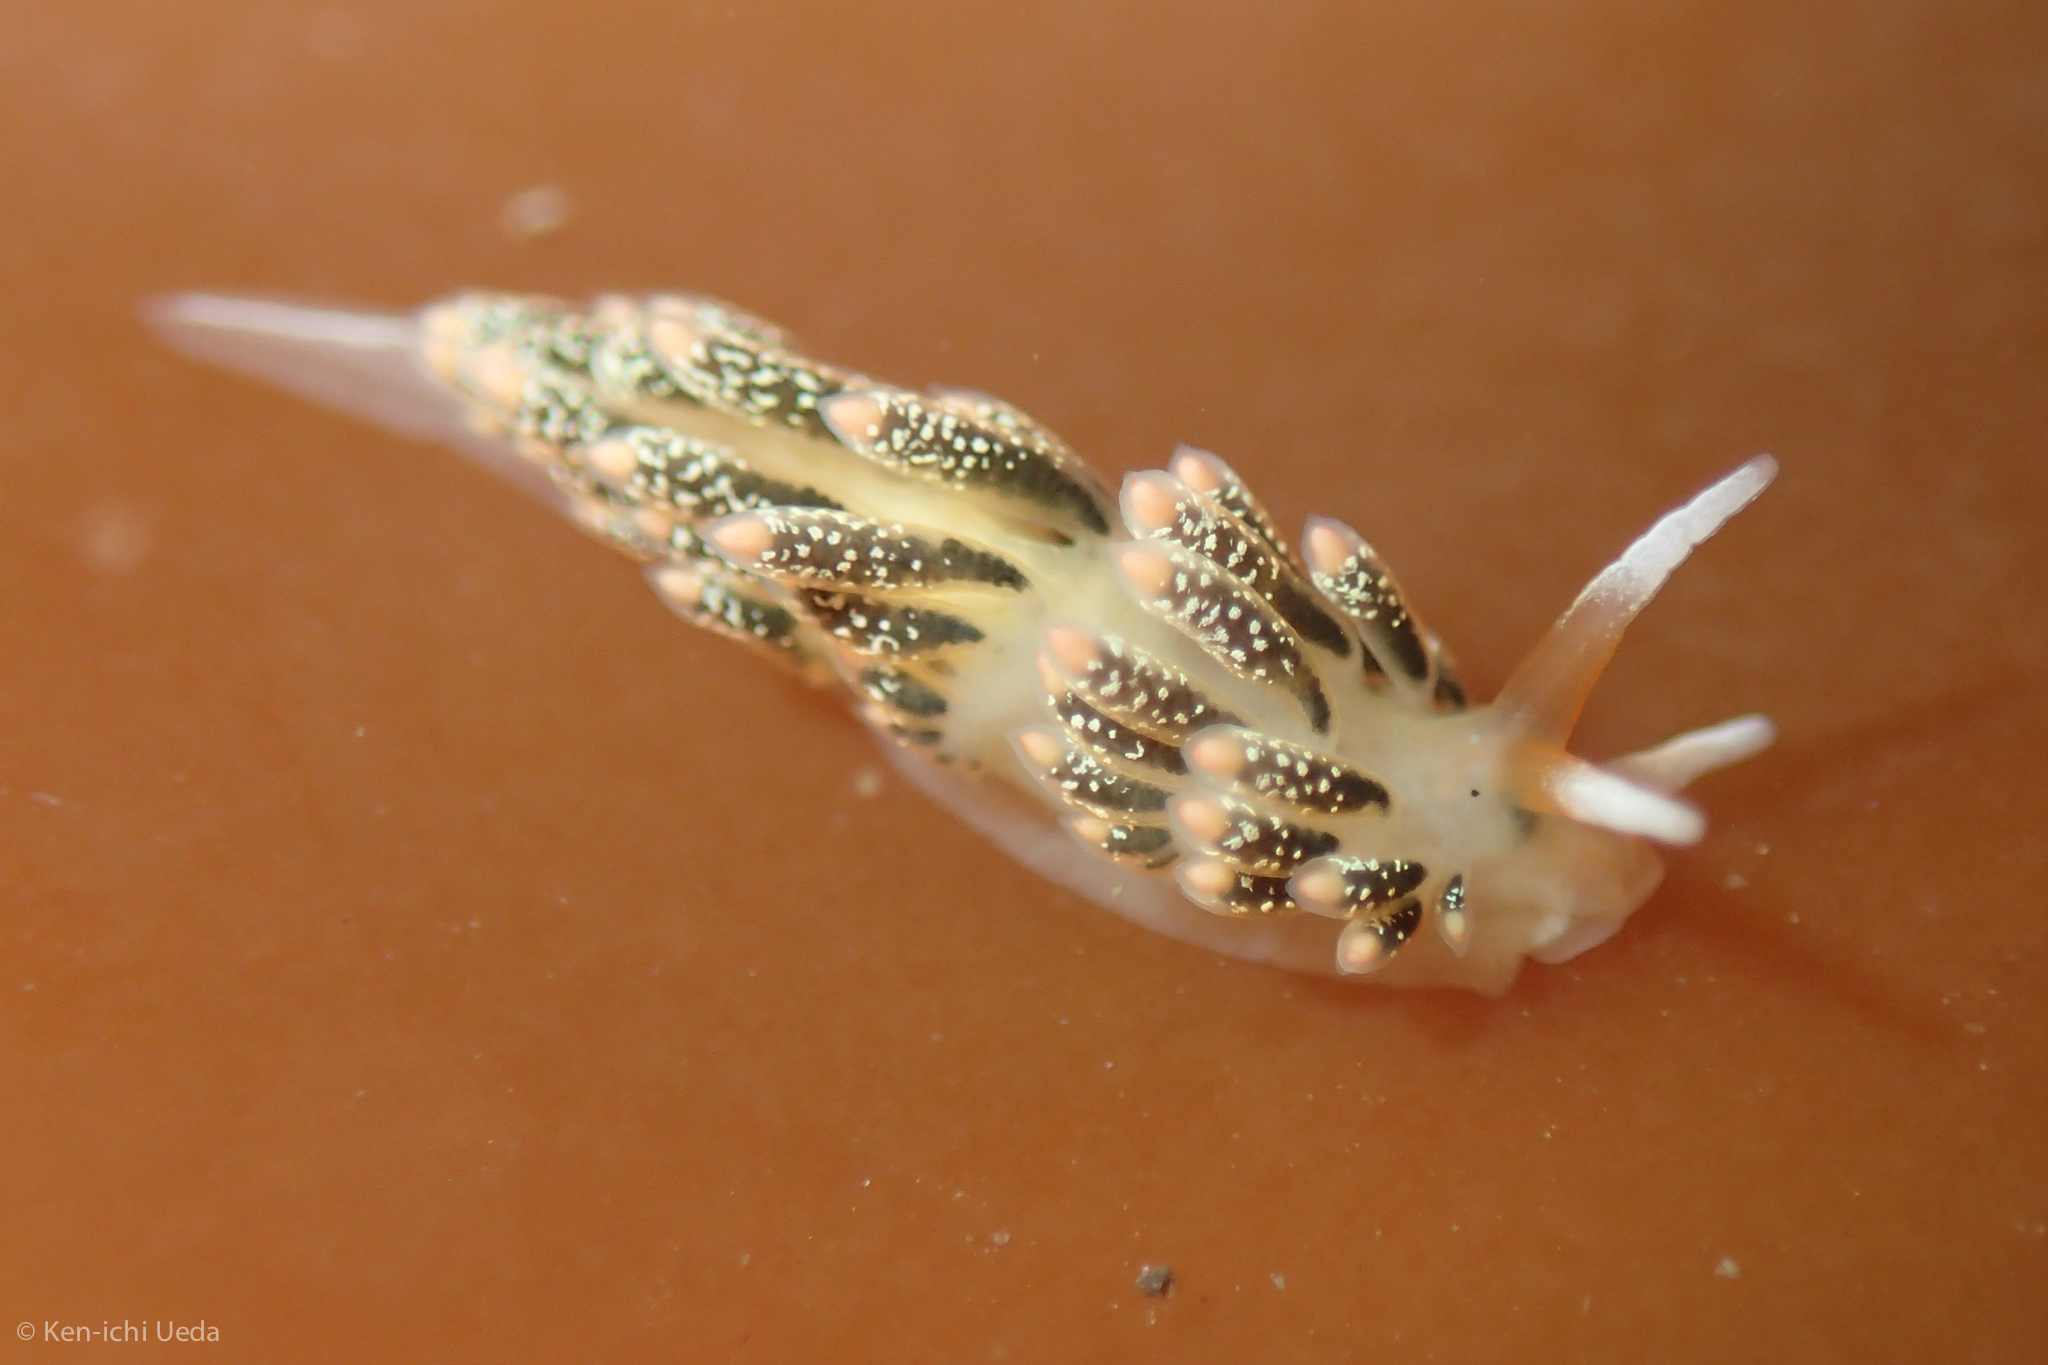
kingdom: Animalia
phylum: Mollusca
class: Gastropoda
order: Nudibranchia
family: Trinchesiidae
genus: Diaphoreolis
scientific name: Diaphoreolis flavovulta
